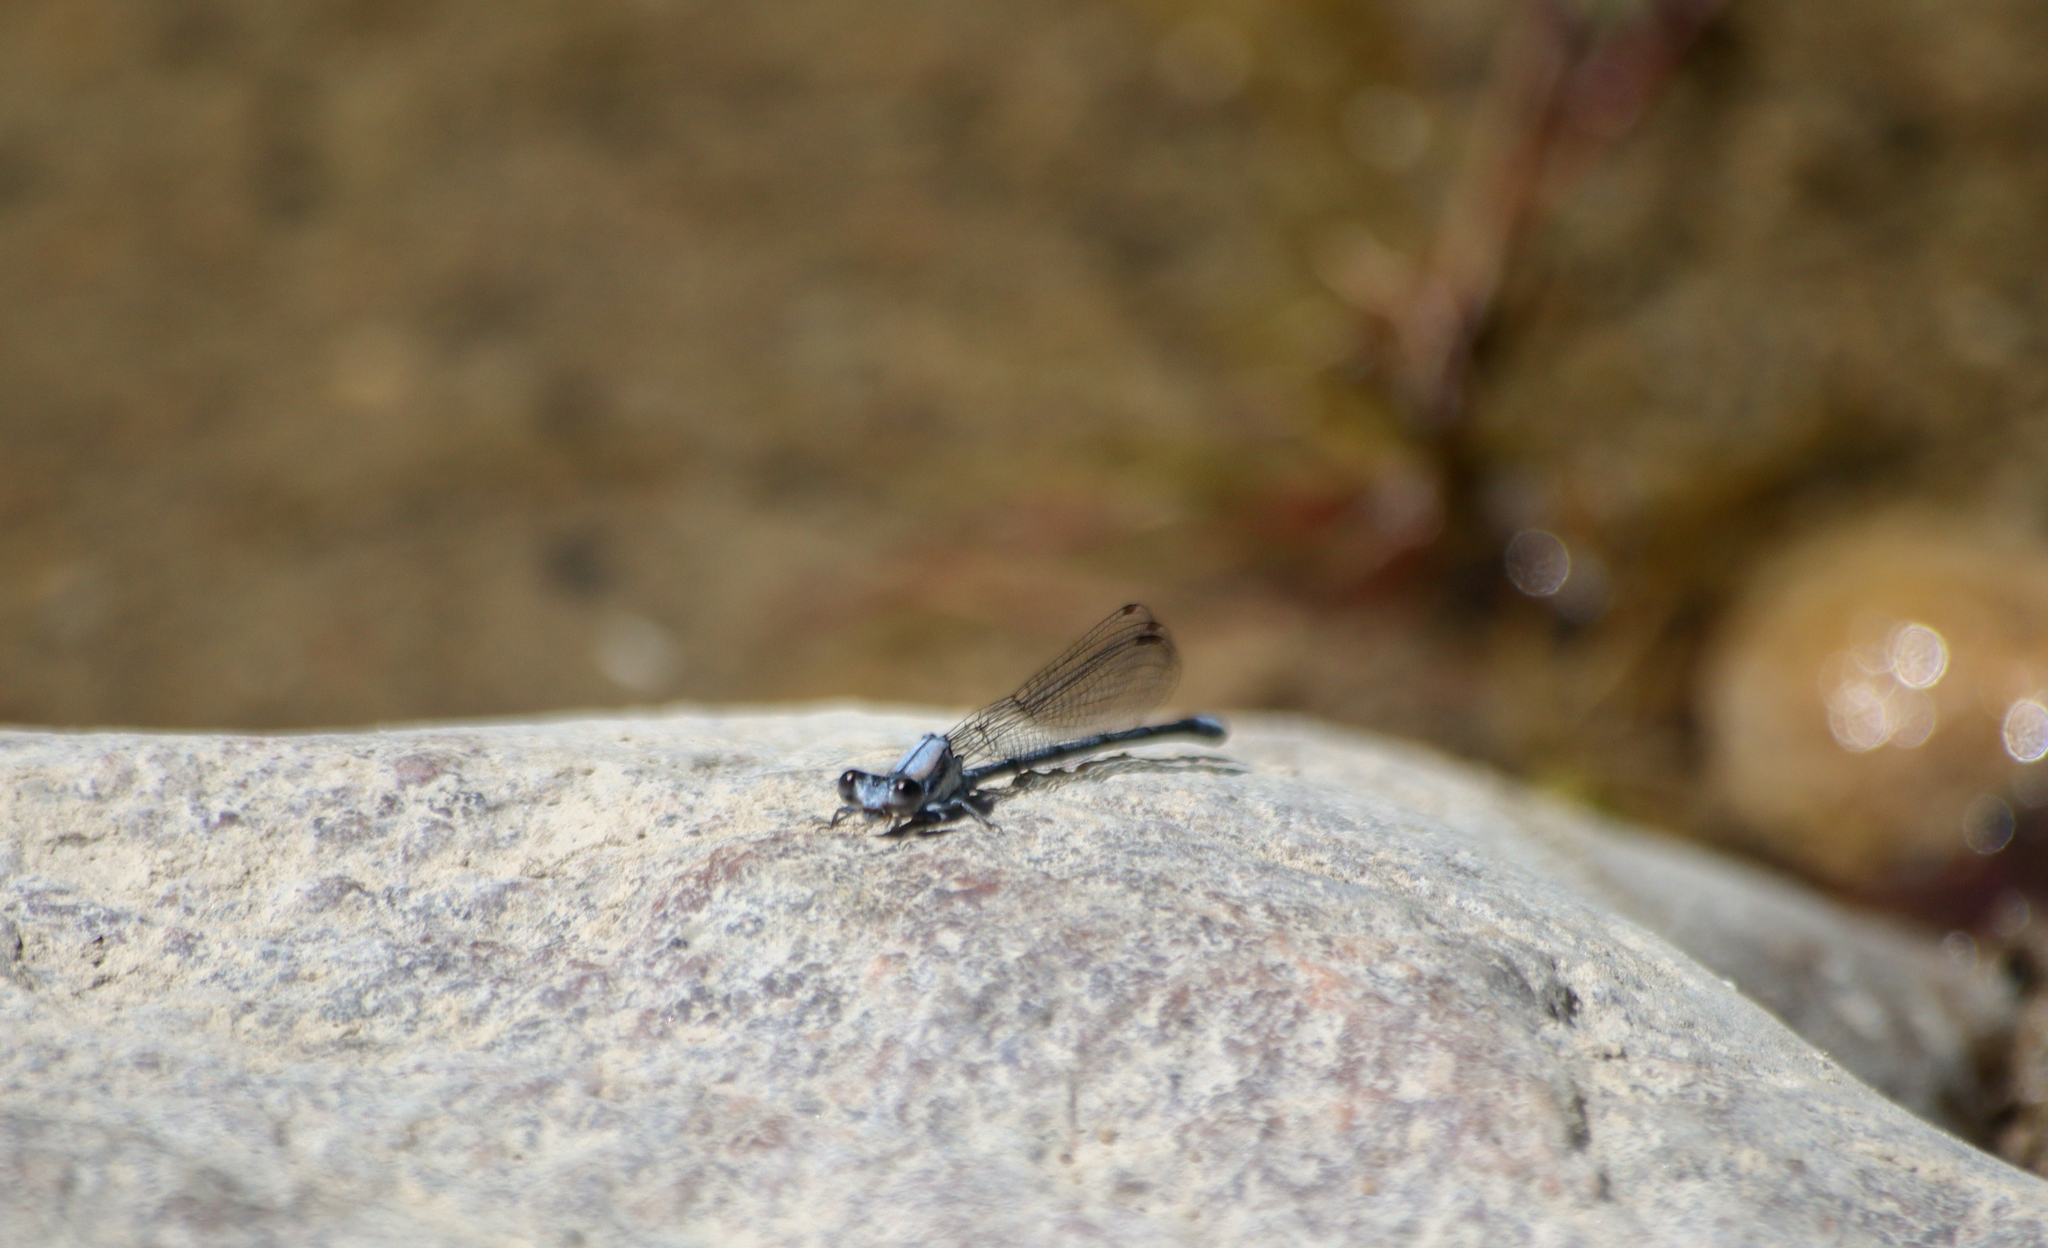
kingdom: Animalia
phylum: Arthropoda
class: Insecta
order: Odonata
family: Coenagrionidae
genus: Argia
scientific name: Argia moesta
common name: Powdered dancer
